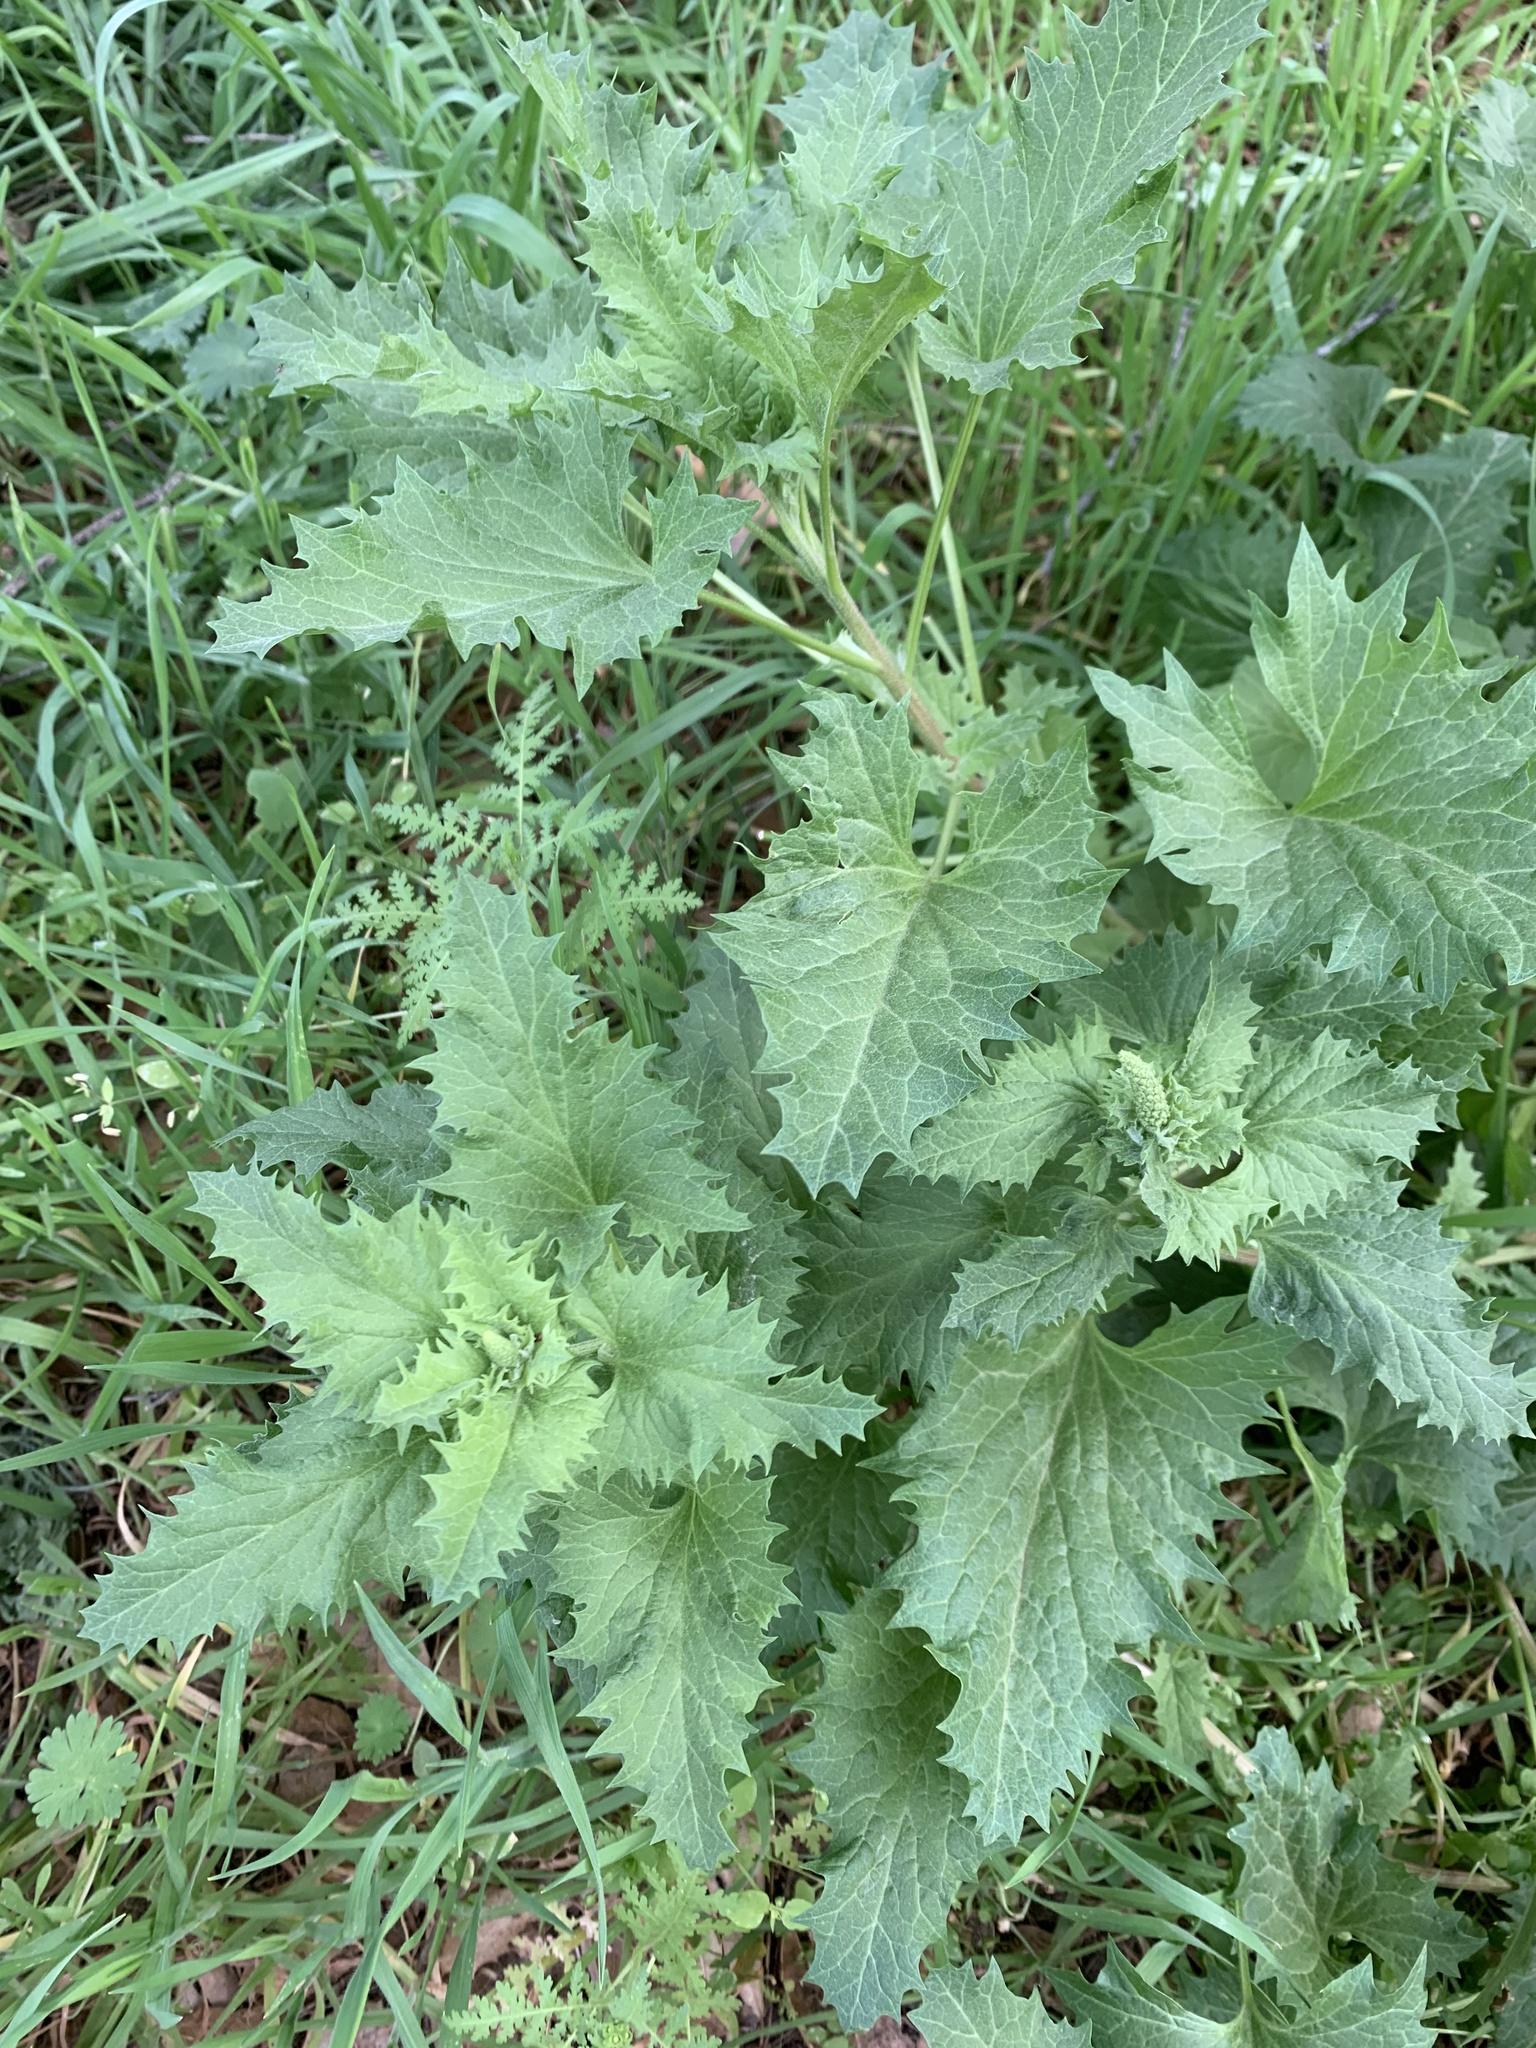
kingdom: Plantae
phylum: Tracheophyta
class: Magnoliopsida
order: Caryophyllales
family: Amaranthaceae
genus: Blitum
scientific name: Blitum californicum
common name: California goosefoot
